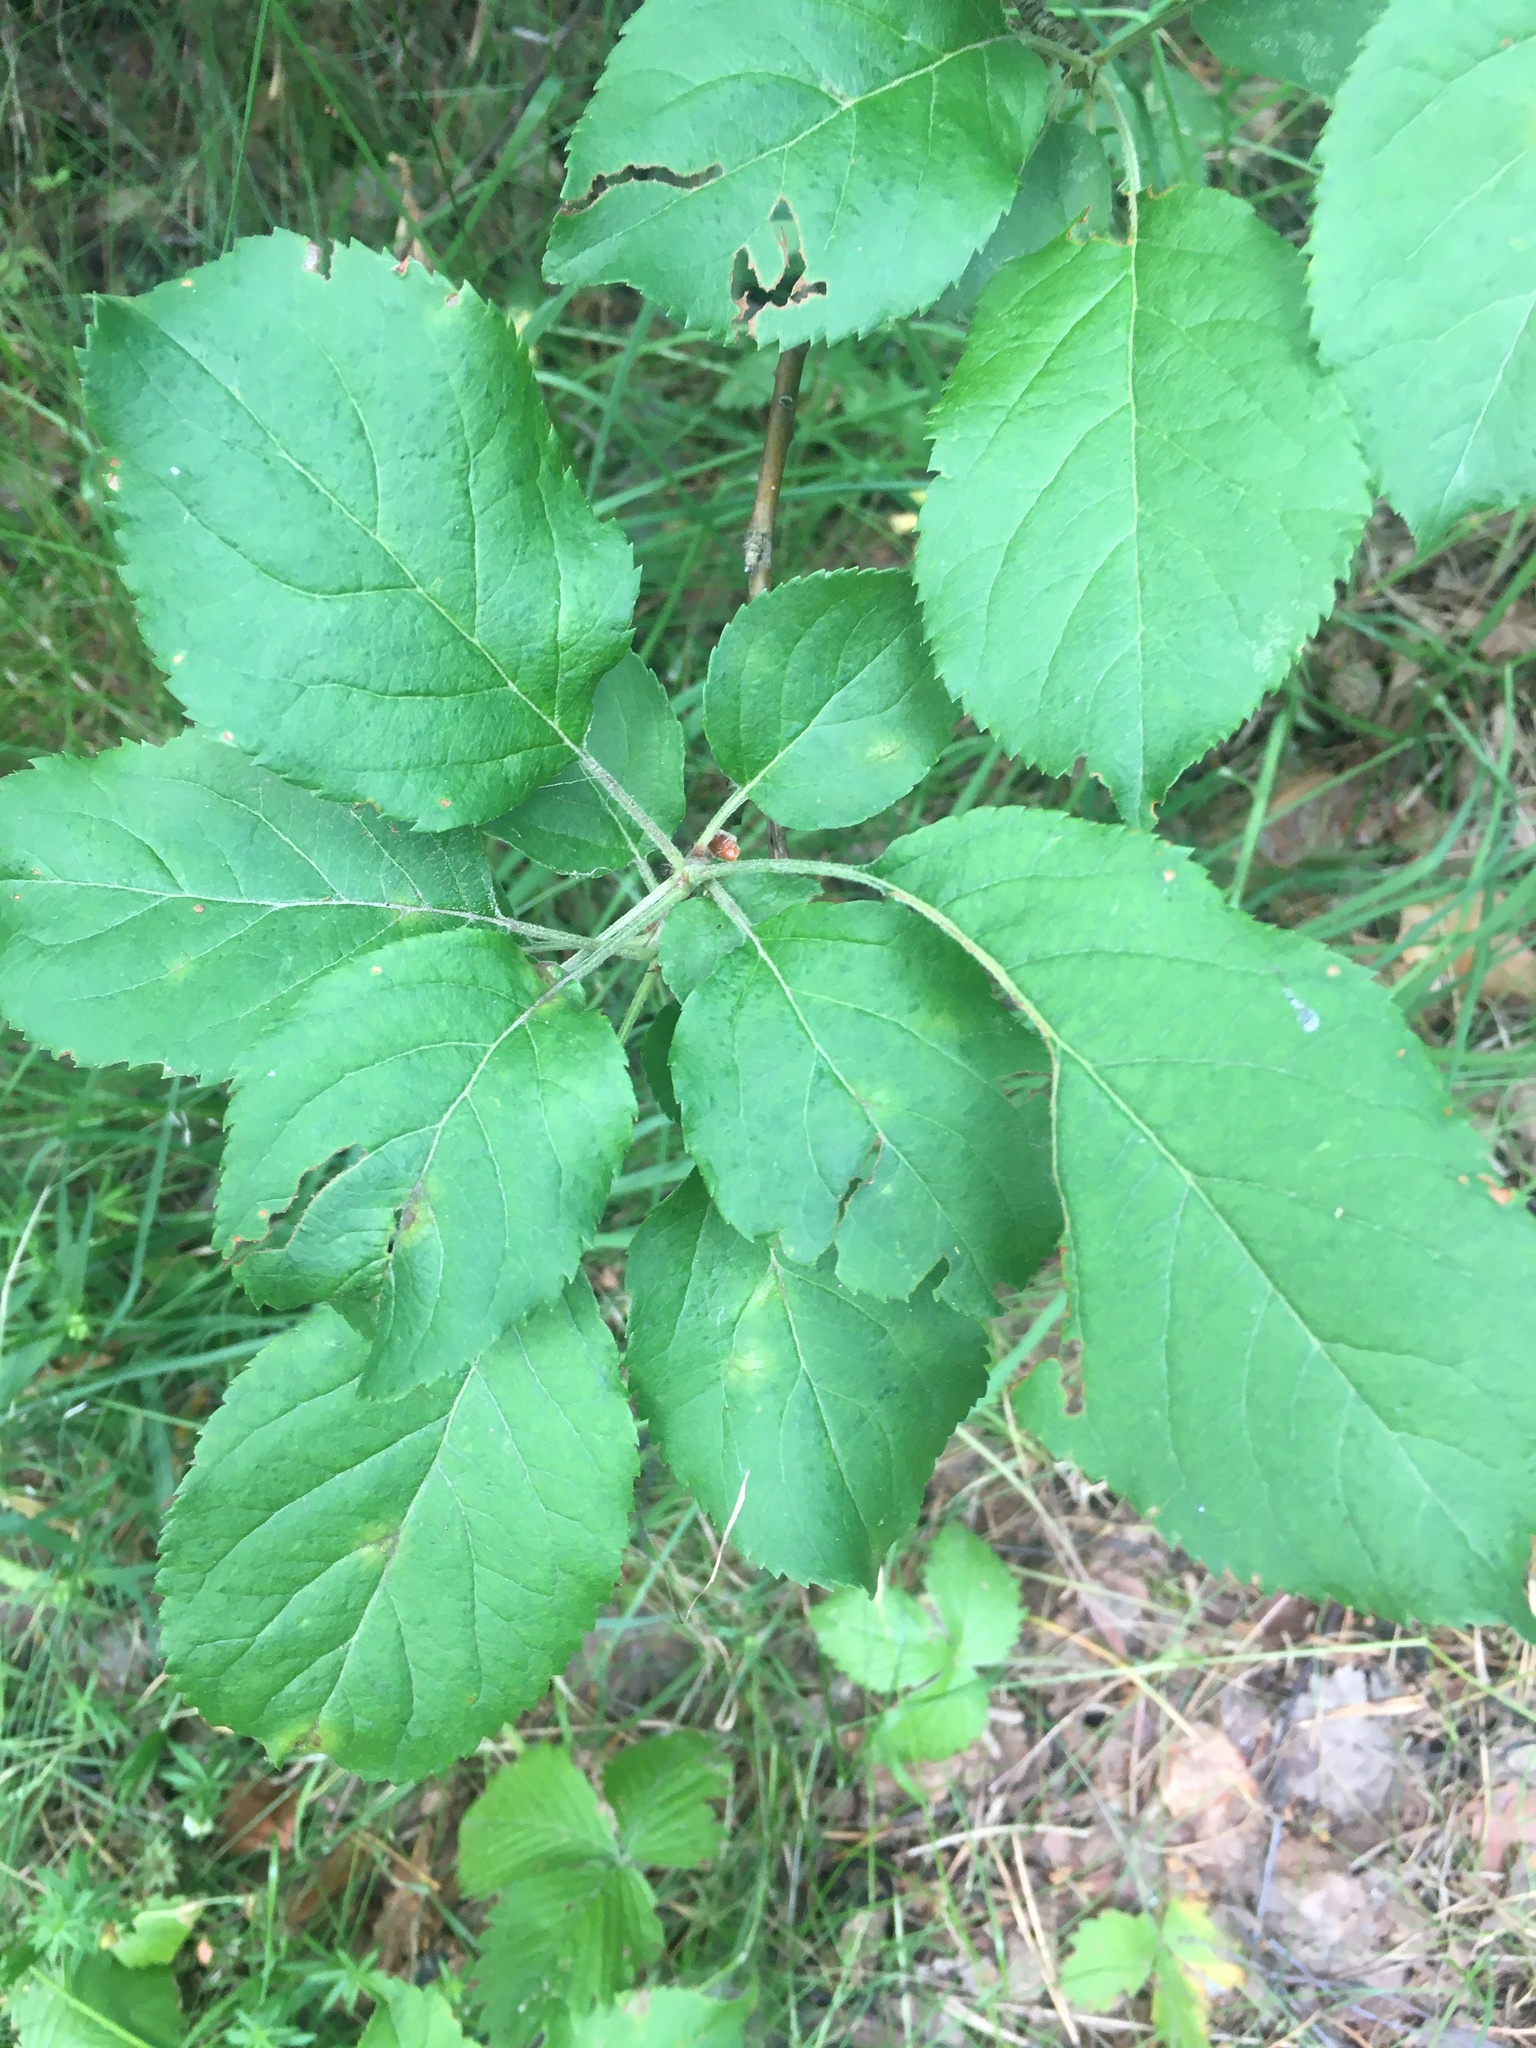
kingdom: Plantae
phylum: Tracheophyta
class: Magnoliopsida
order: Rosales
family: Rosaceae
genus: Malus
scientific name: Malus domestica
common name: Apple
